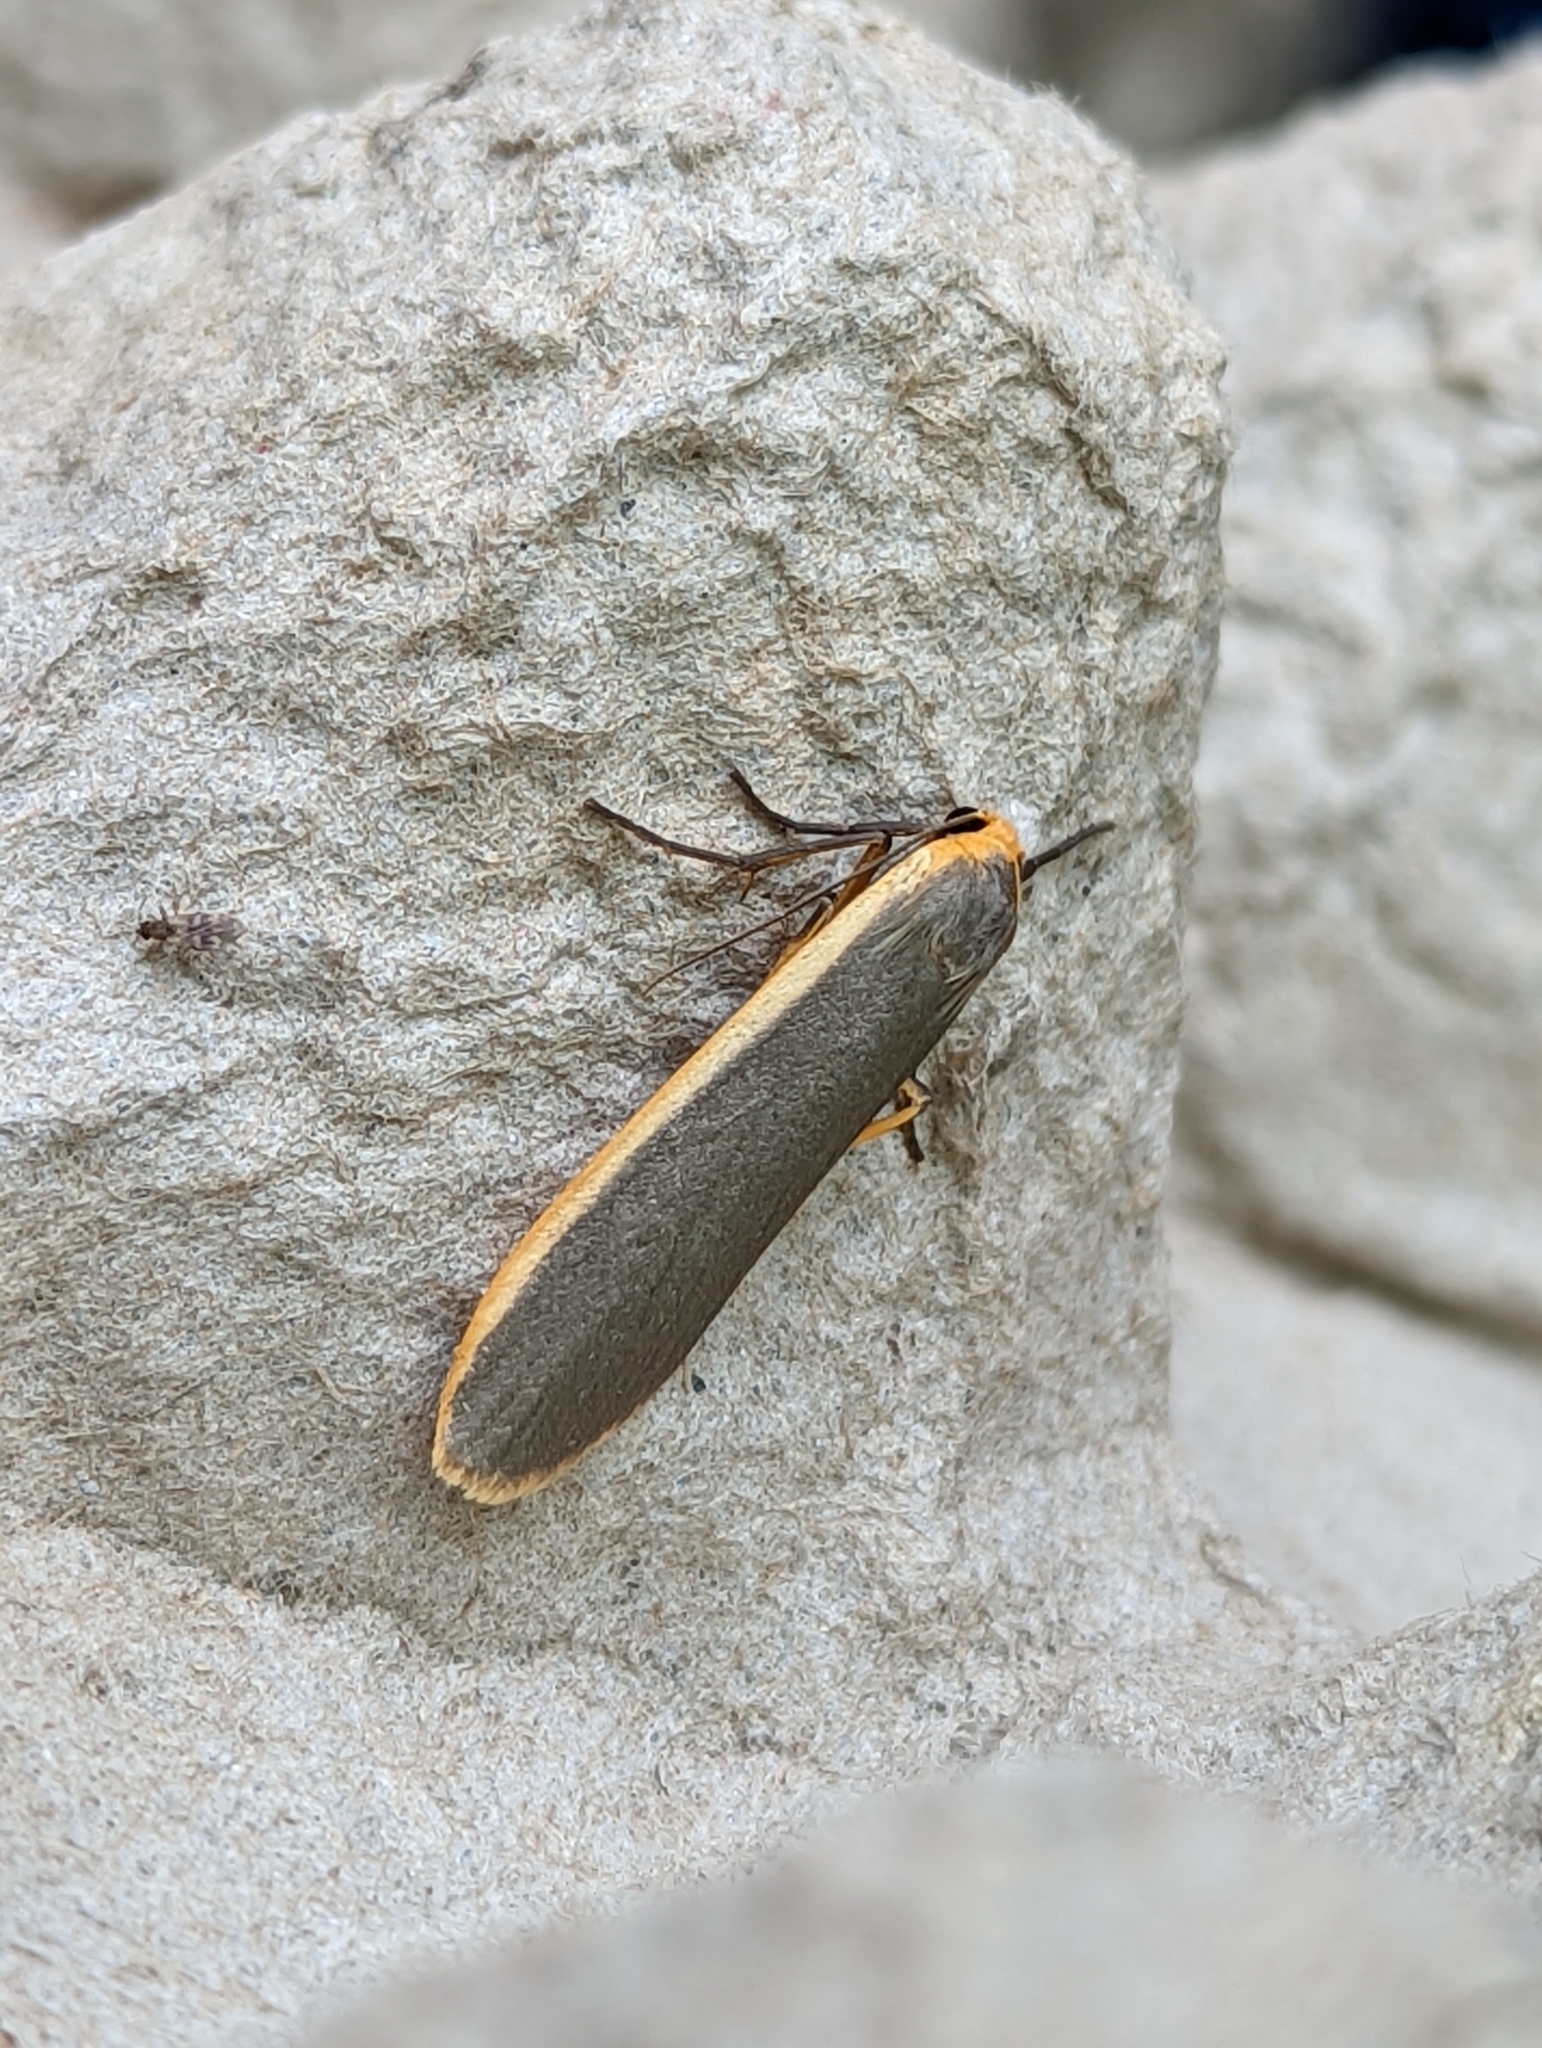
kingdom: Animalia
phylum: Arthropoda
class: Insecta
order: Lepidoptera
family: Erebidae
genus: Nyea
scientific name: Nyea lurideola
